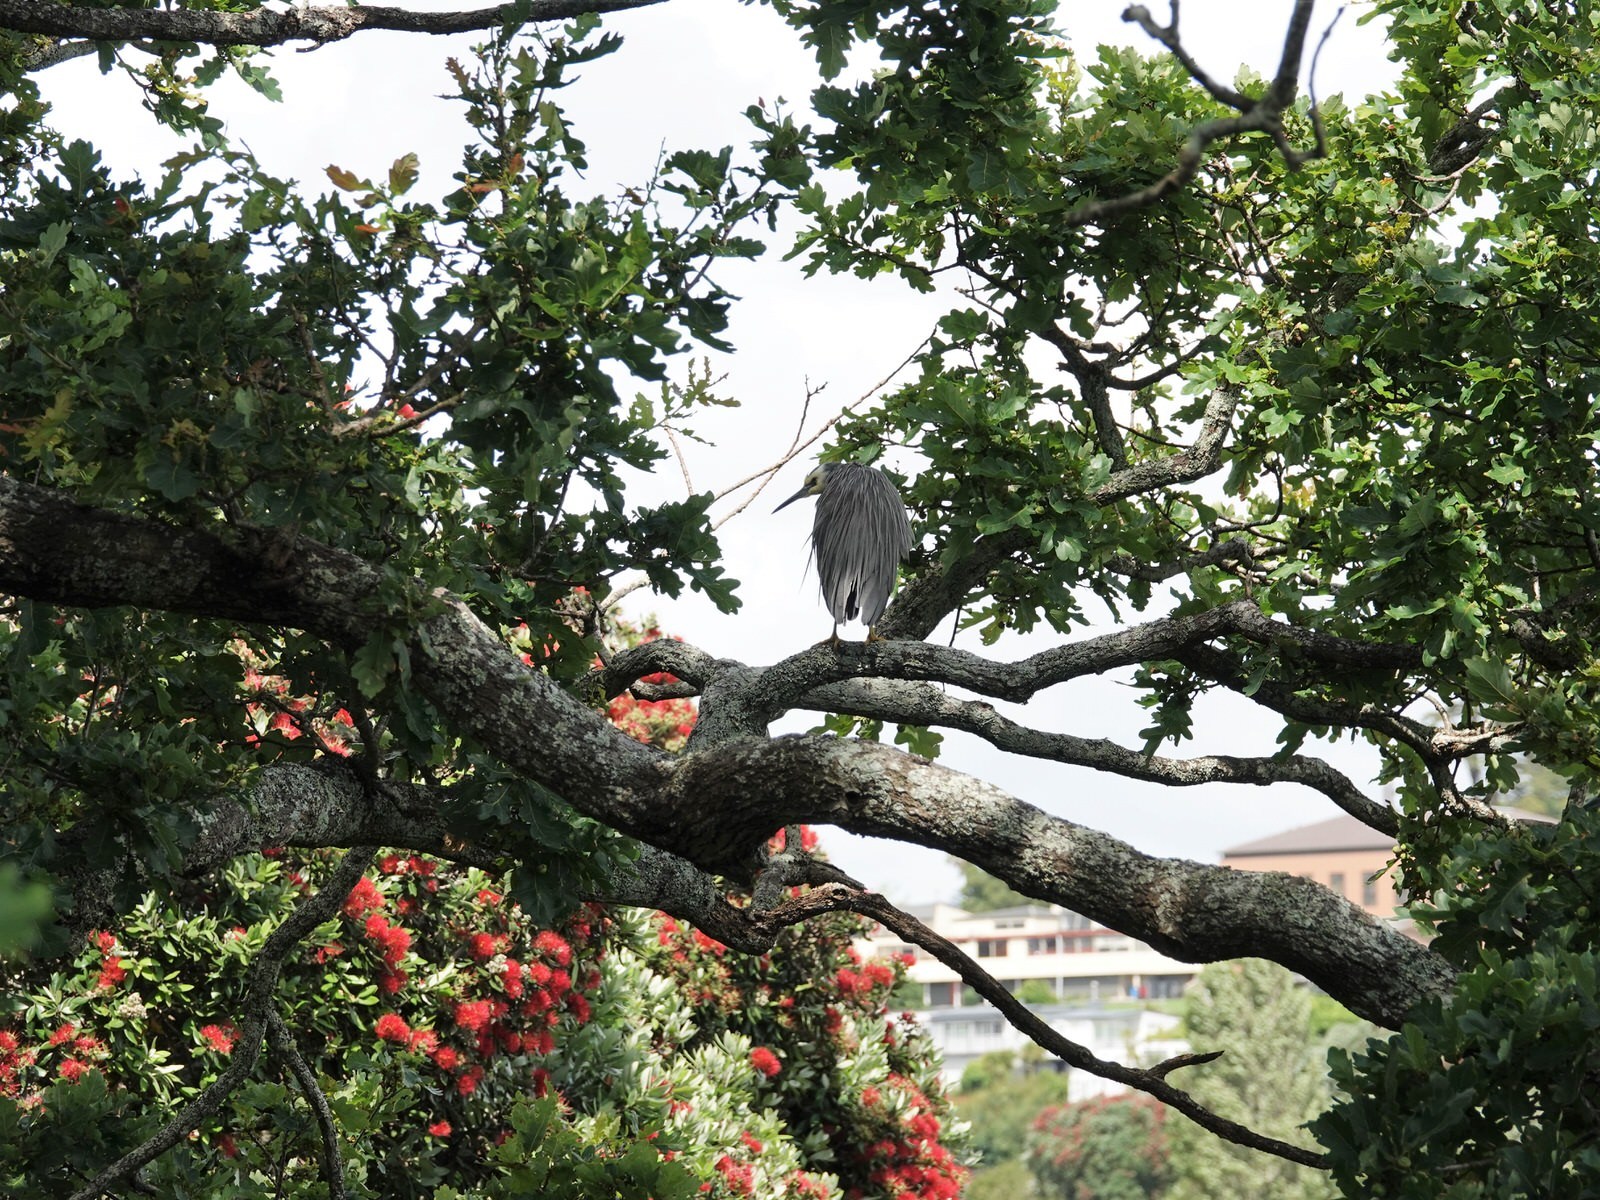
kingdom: Animalia
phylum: Chordata
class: Aves
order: Pelecaniformes
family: Ardeidae
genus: Egretta
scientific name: Egretta novaehollandiae
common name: White-faced heron
